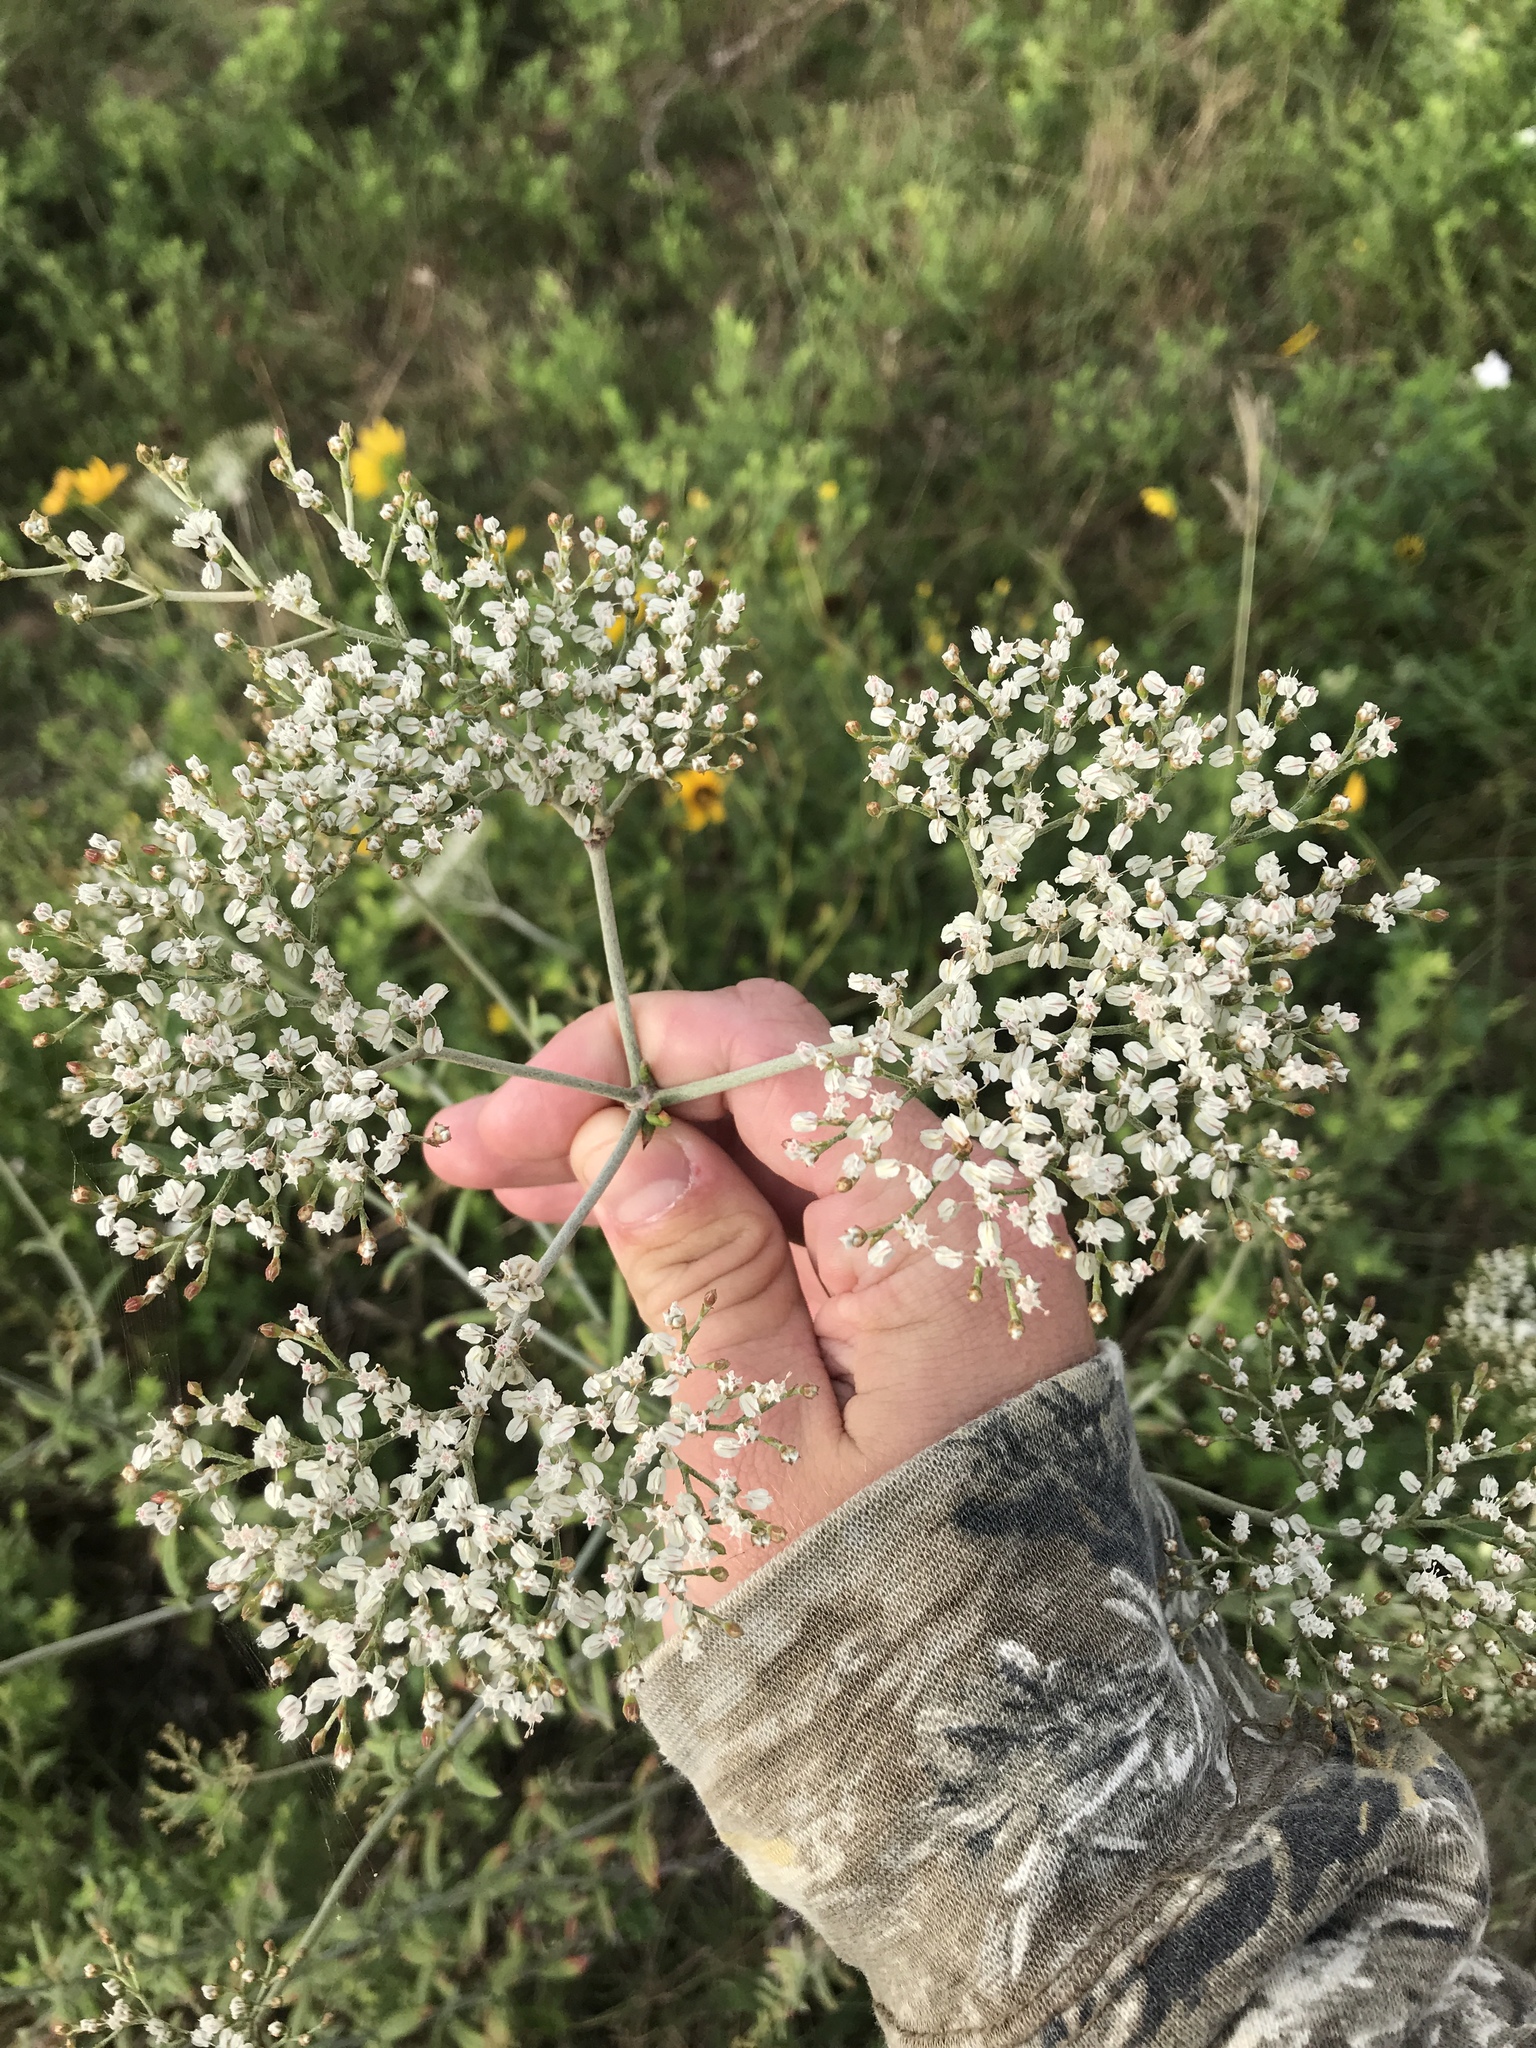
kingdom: Plantae
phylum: Tracheophyta
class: Magnoliopsida
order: Caryophyllales
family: Polygonaceae
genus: Eriogonum
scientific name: Eriogonum multiflorum
